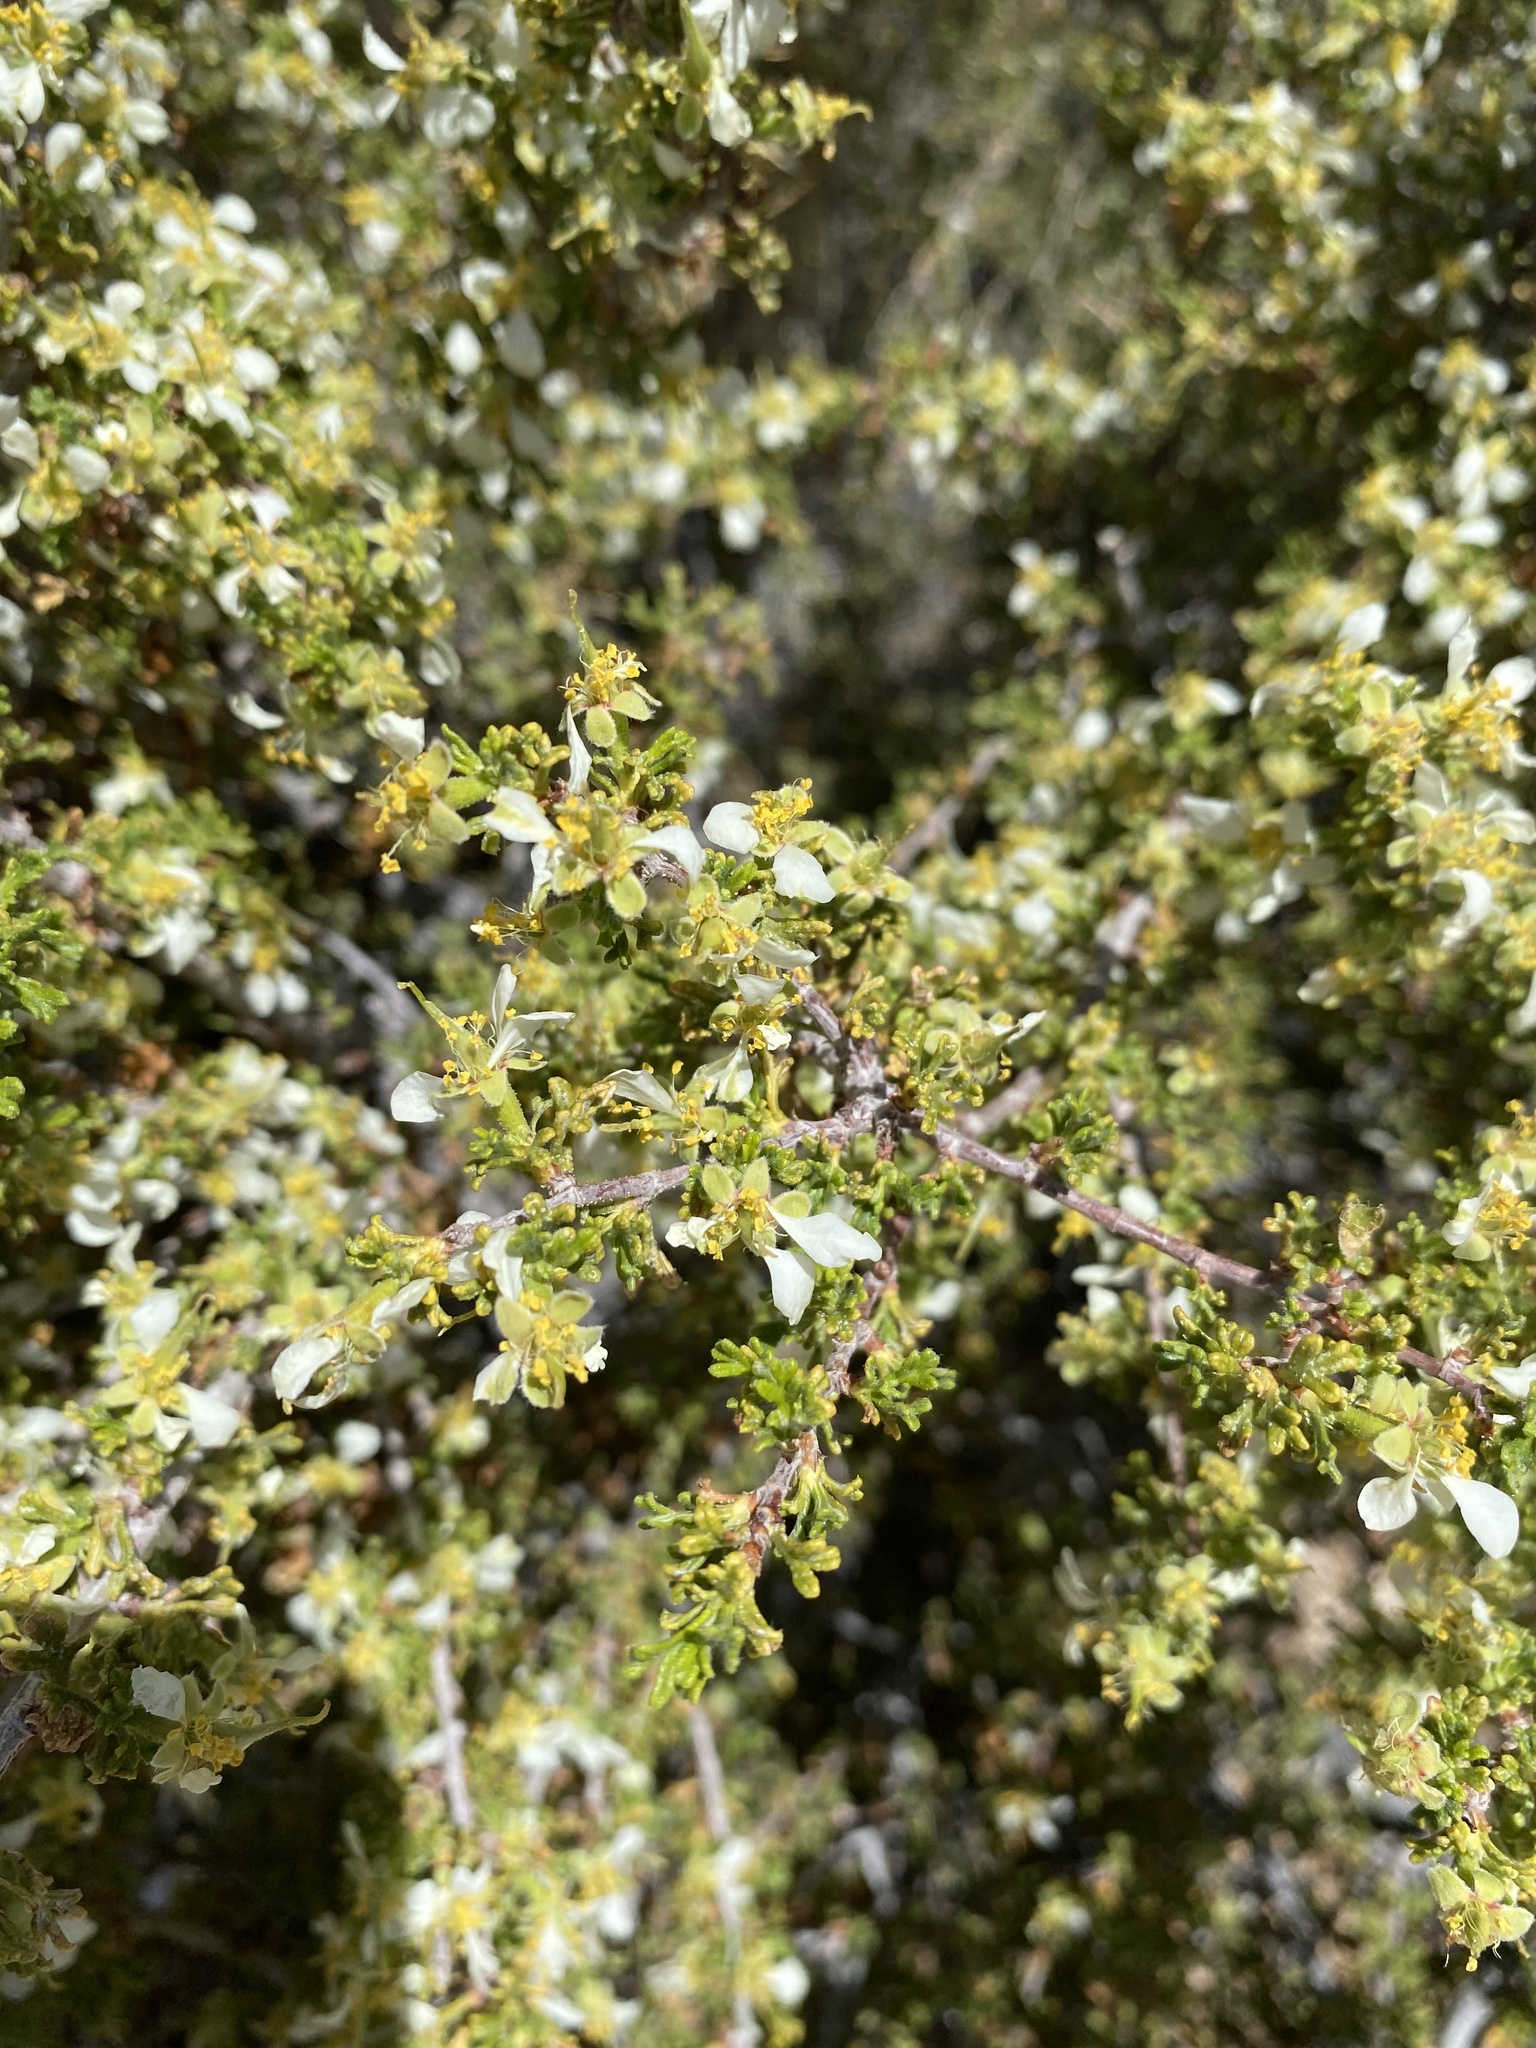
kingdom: Plantae
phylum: Tracheophyta
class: Magnoliopsida
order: Rosales
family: Rosaceae
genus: Purshia
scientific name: Purshia glandulosa
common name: Desert bitterbrush
